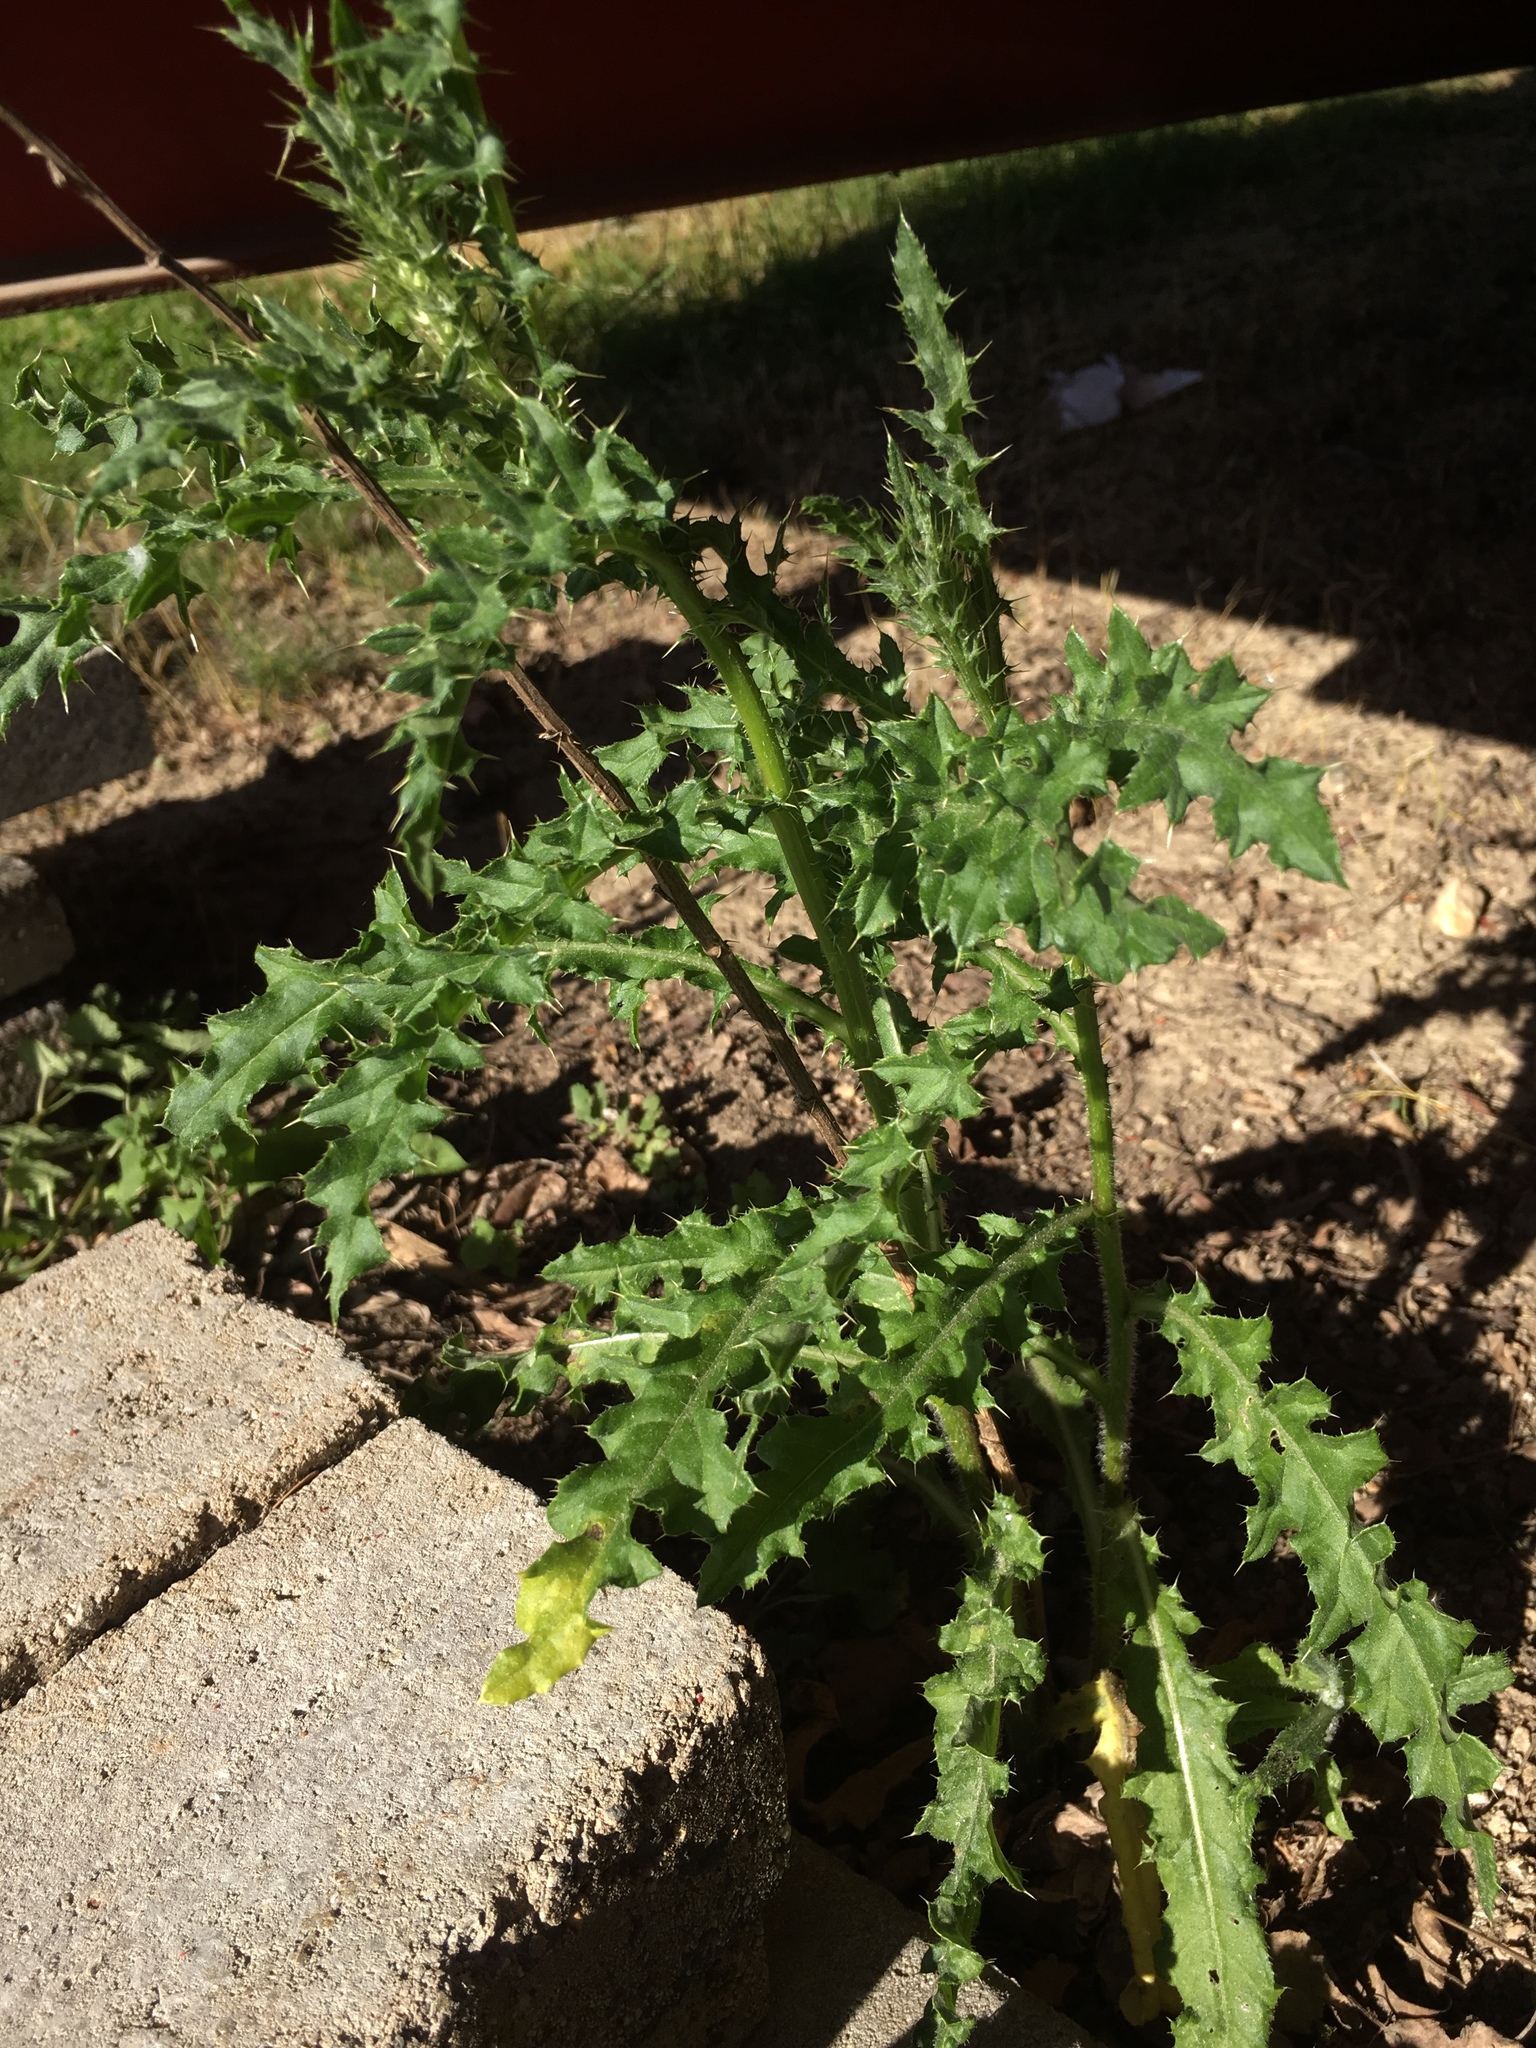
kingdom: Plantae
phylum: Tracheophyta
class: Magnoliopsida
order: Asterales
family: Asteraceae
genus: Cirsium
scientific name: Cirsium arvense
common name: Creeping thistle
